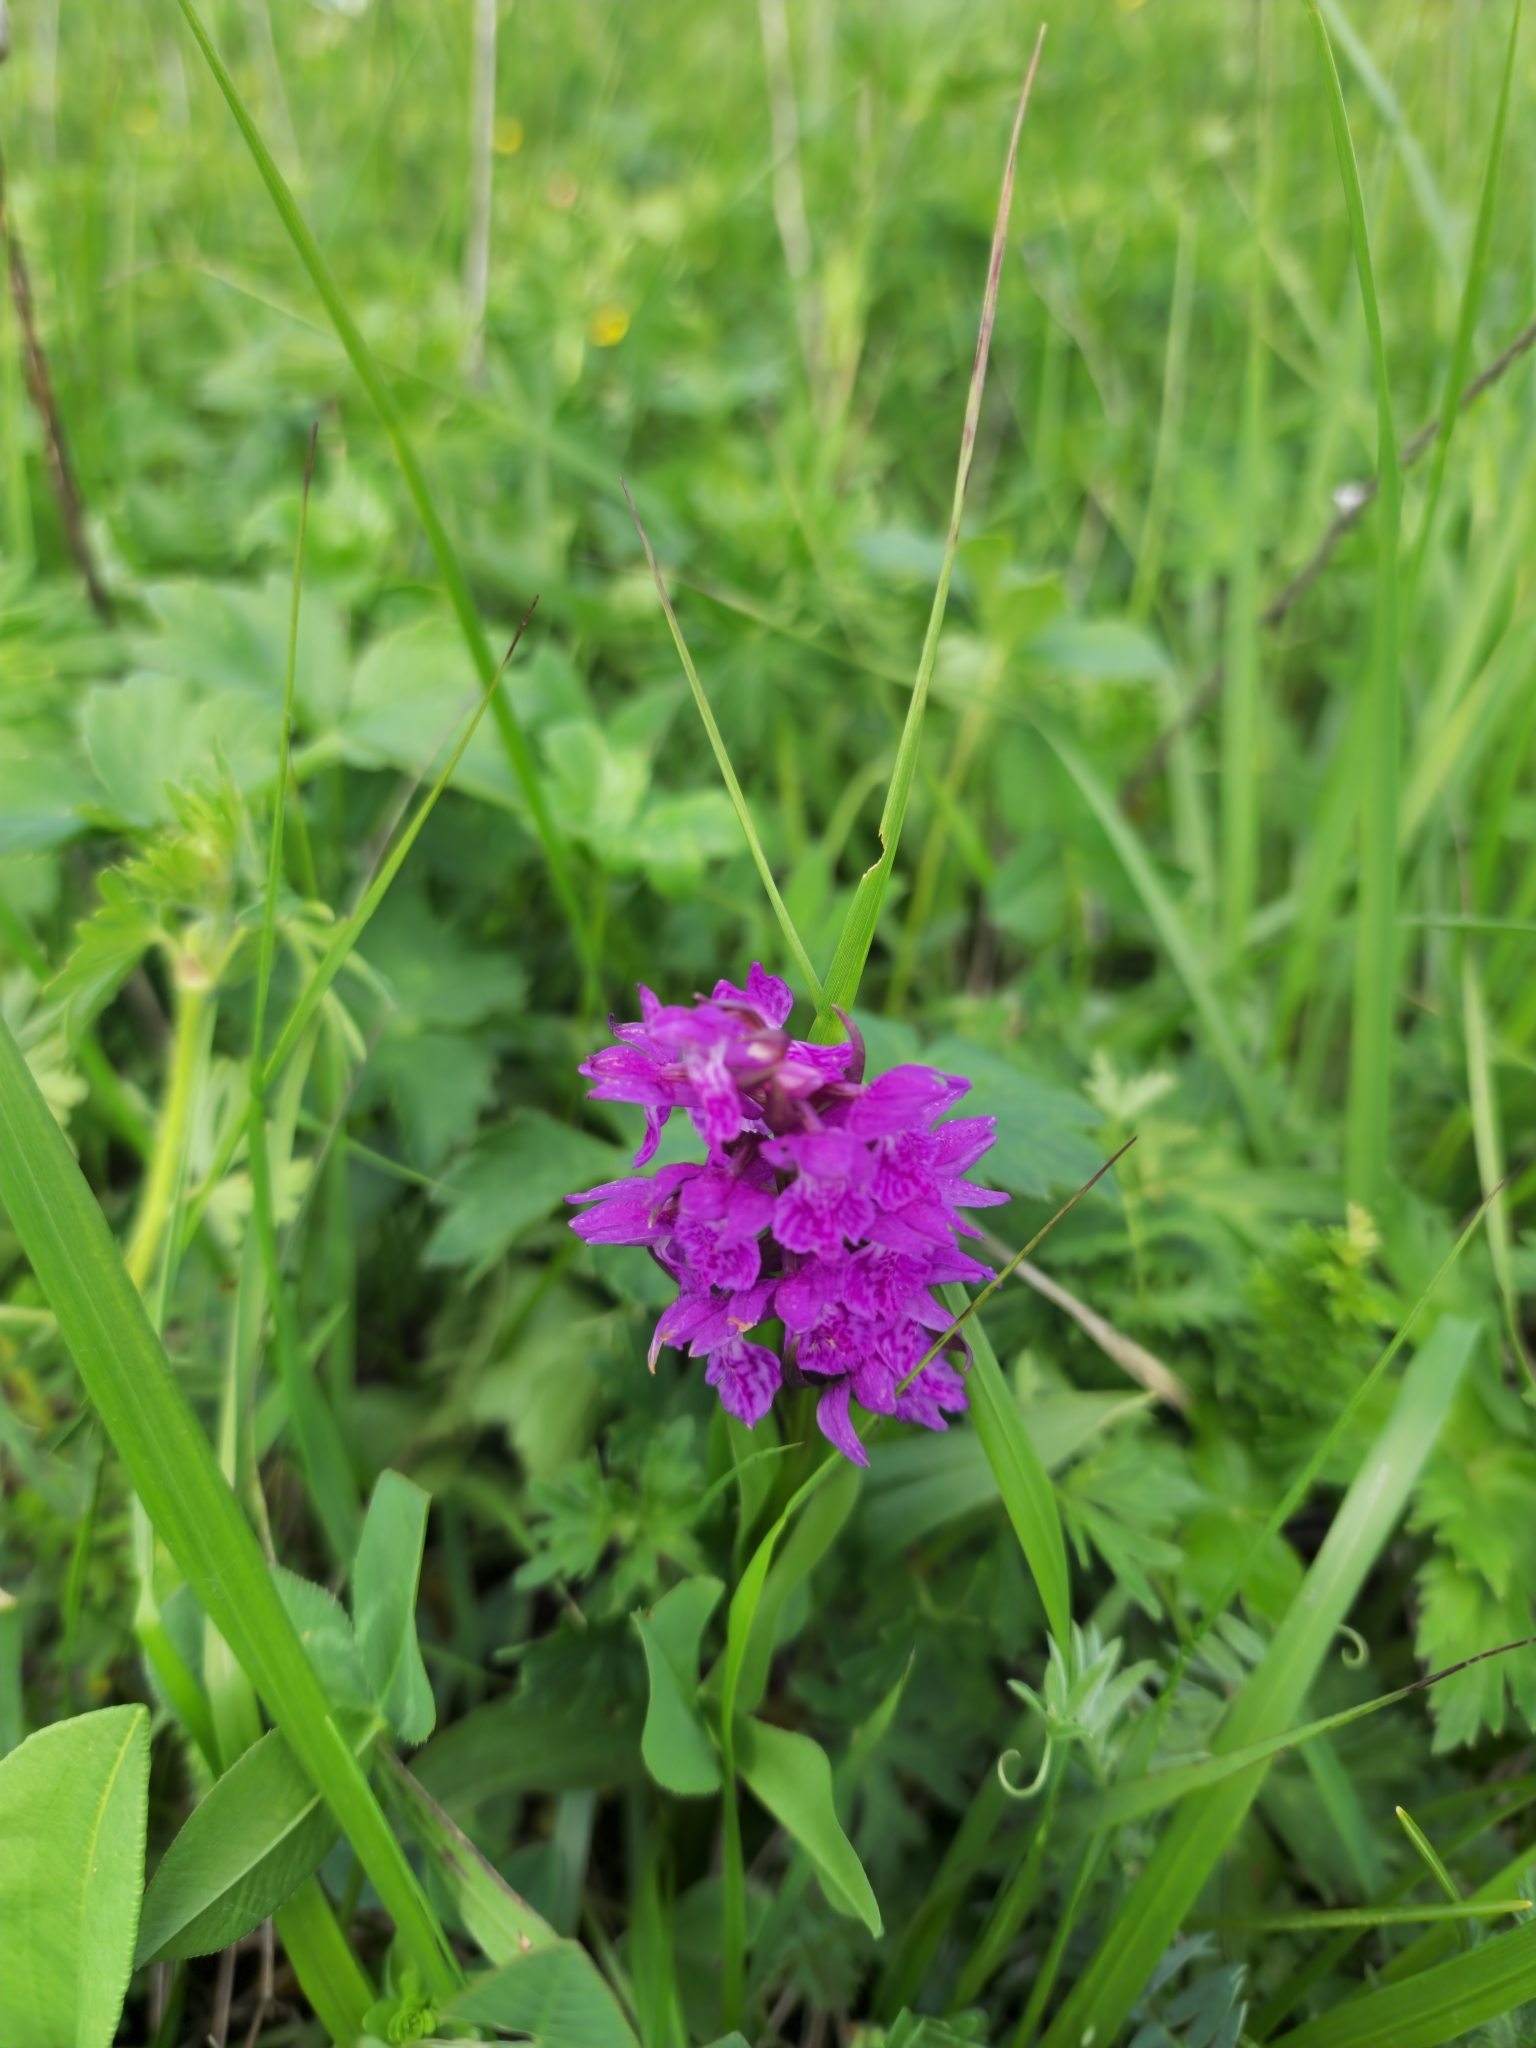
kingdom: Plantae
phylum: Tracheophyta
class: Liliopsida
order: Asparagales
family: Orchidaceae
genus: Dactylorhiza
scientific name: Dactylorhiza euxina
